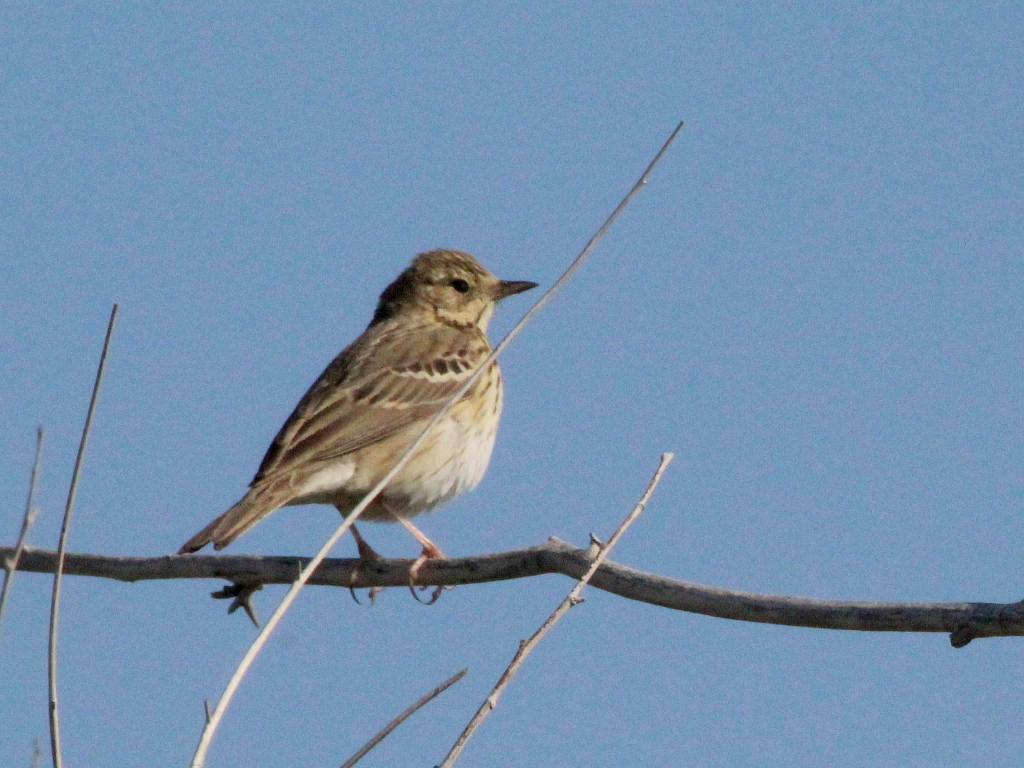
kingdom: Animalia
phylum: Chordata
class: Aves
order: Passeriformes
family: Motacillidae
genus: Anthus
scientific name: Anthus trivialis
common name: Tree pipit
